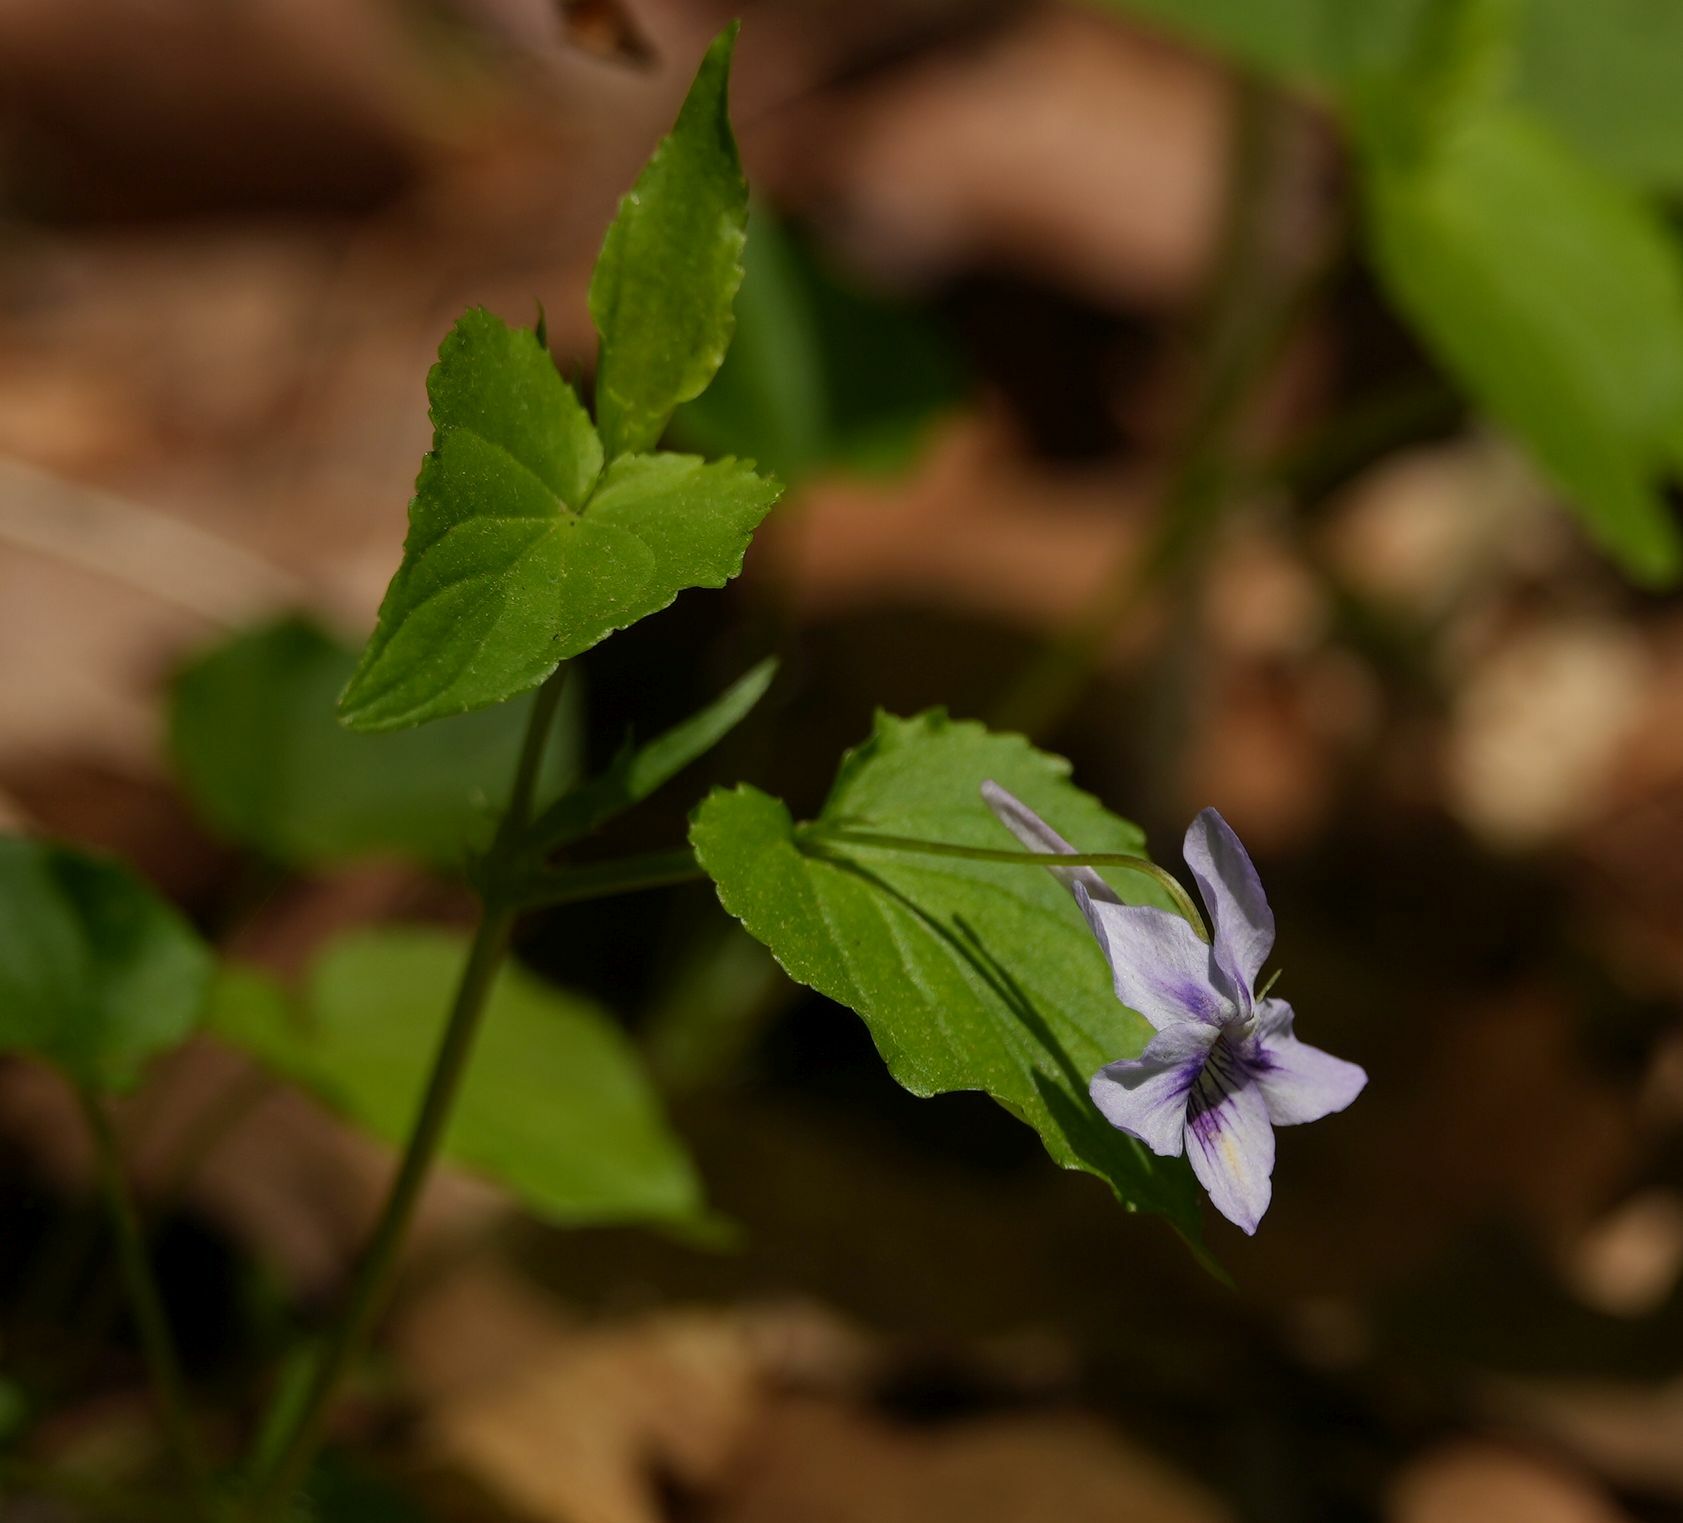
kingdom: Plantae
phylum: Tracheophyta
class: Magnoliopsida
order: Malpighiales
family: Violaceae
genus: Viola
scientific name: Viola rostrata
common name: Long-spur violet
